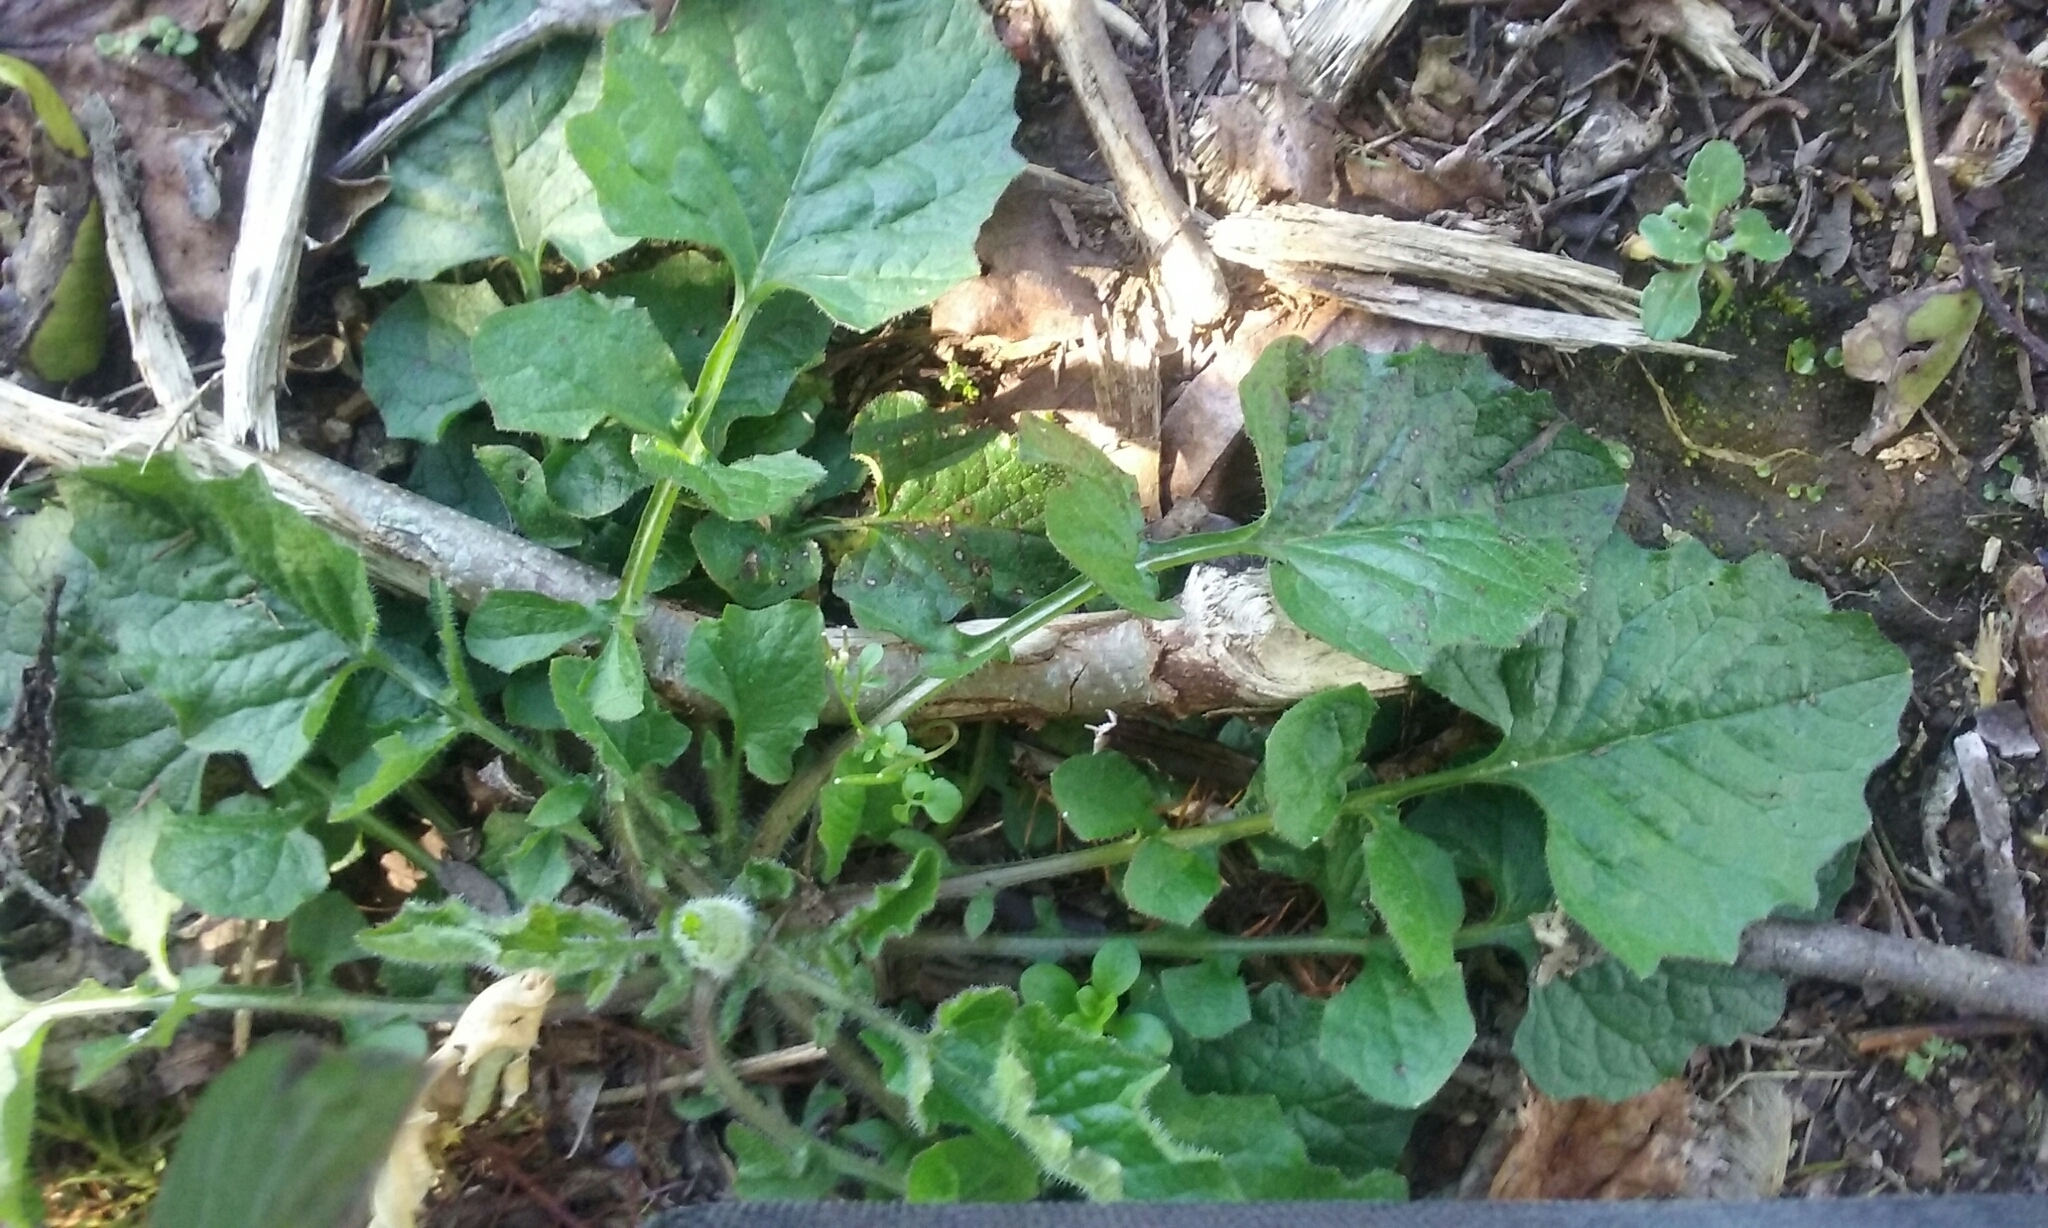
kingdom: Plantae
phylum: Tracheophyta
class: Magnoliopsida
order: Asterales
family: Asteraceae
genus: Lapsana
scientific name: Lapsana communis
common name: Nipplewort
